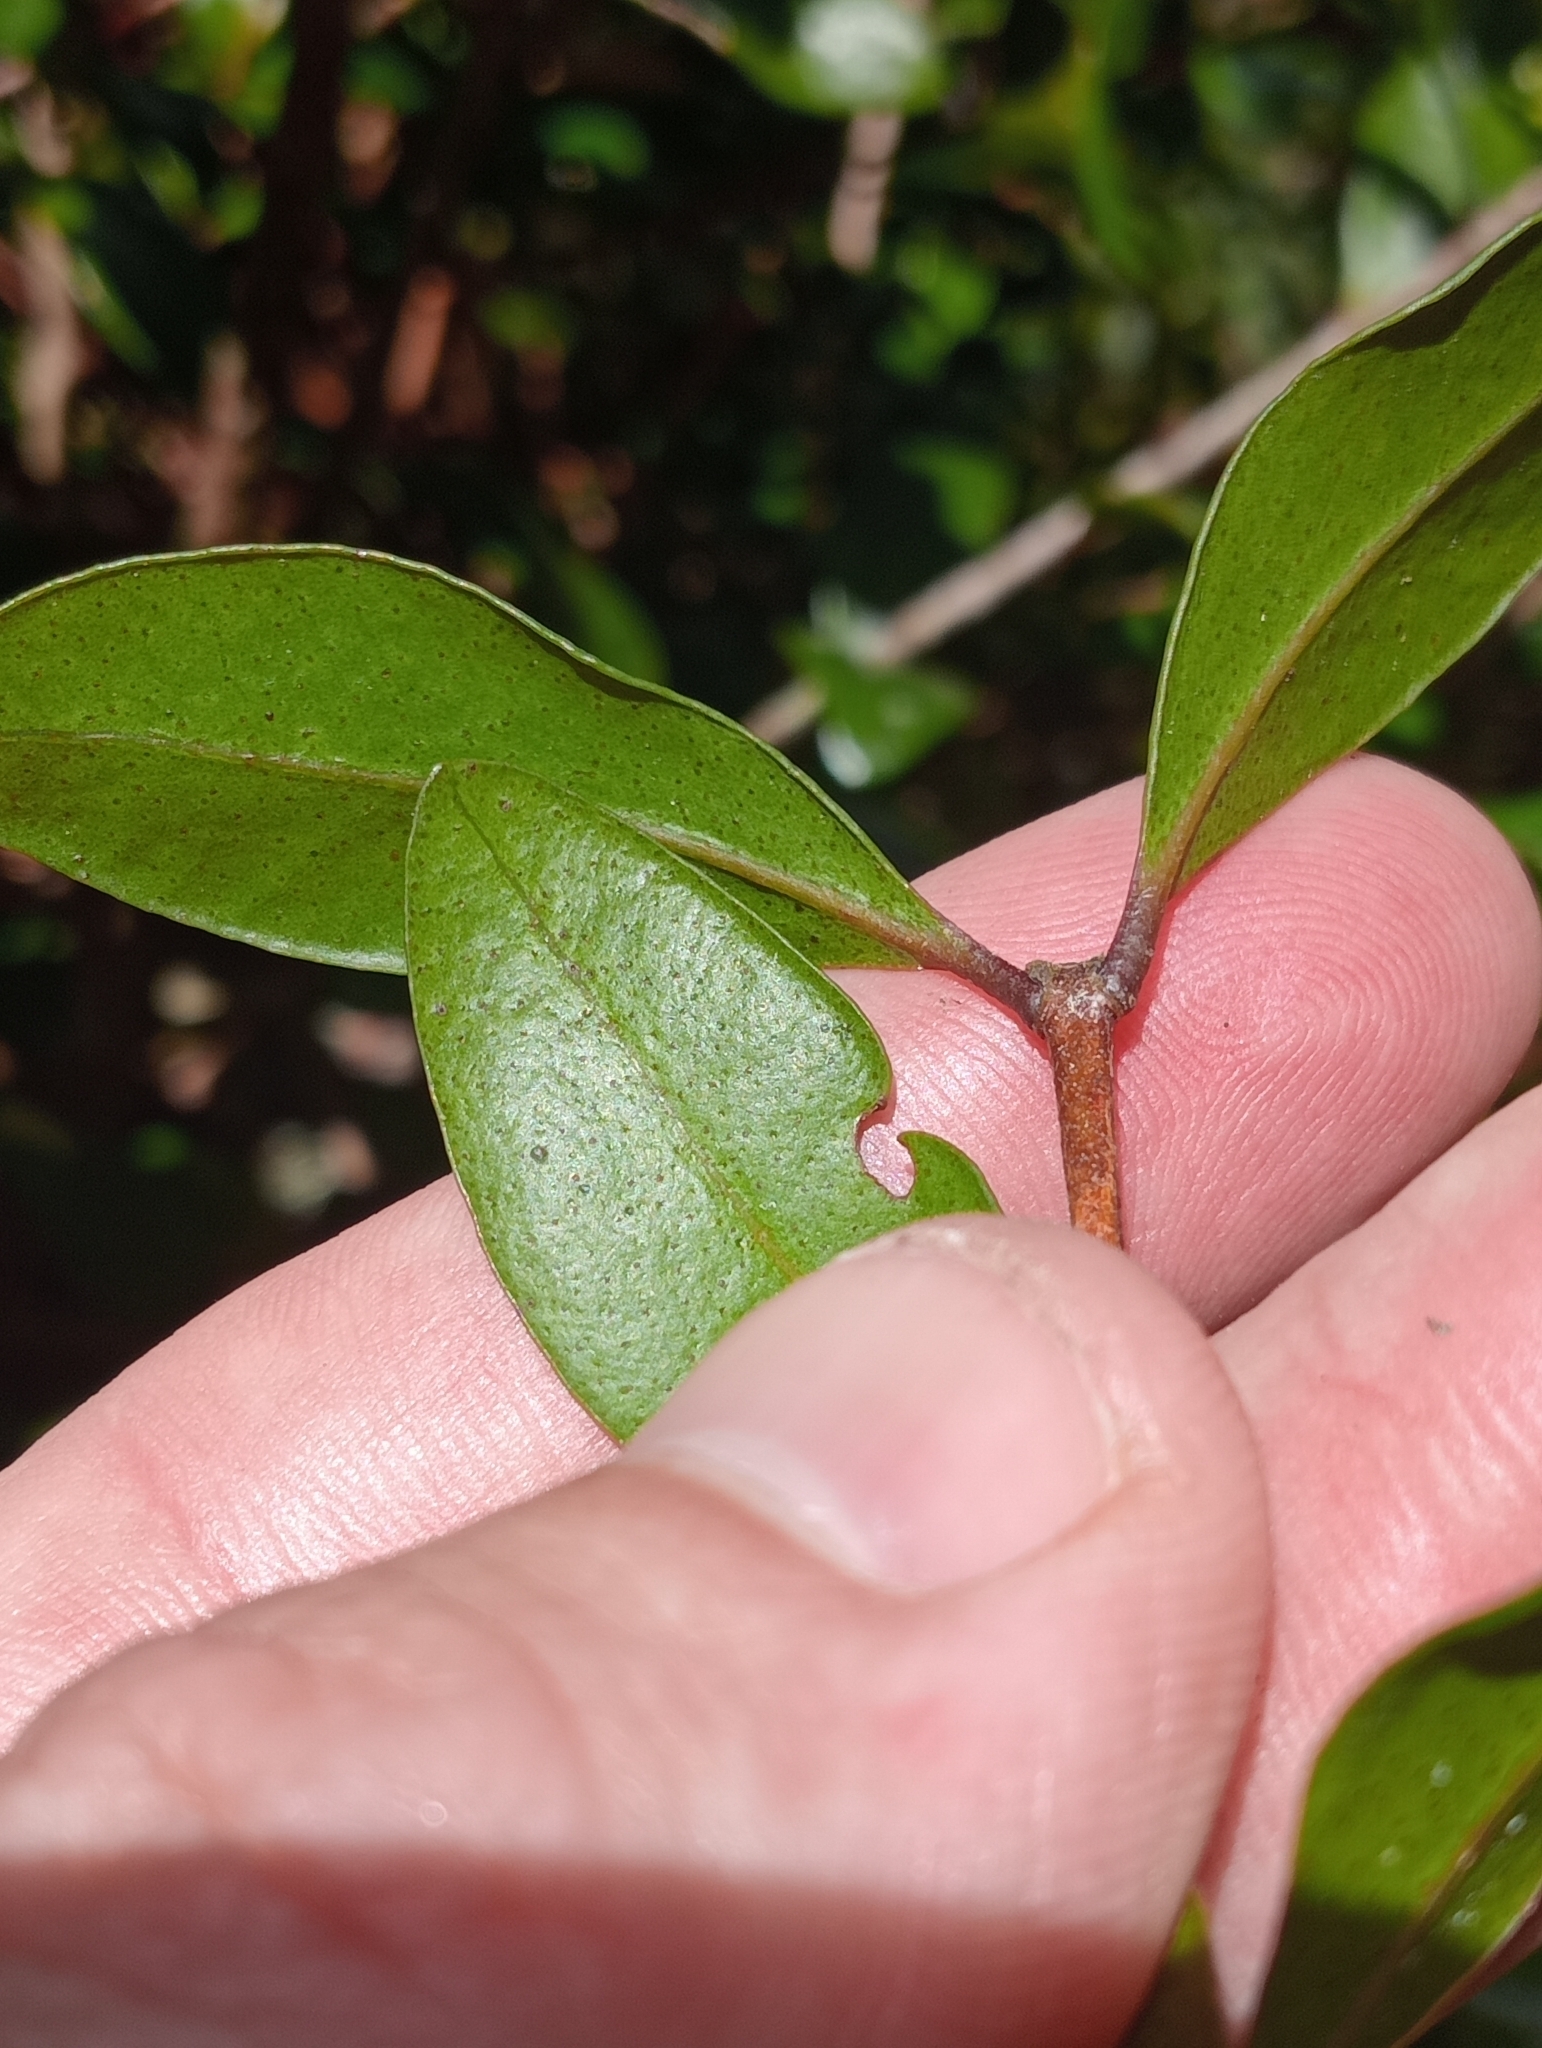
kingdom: Plantae
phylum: Tracheophyta
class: Magnoliopsida
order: Myrtales
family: Myrtaceae
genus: Metrosideros
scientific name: Metrosideros fulgens
